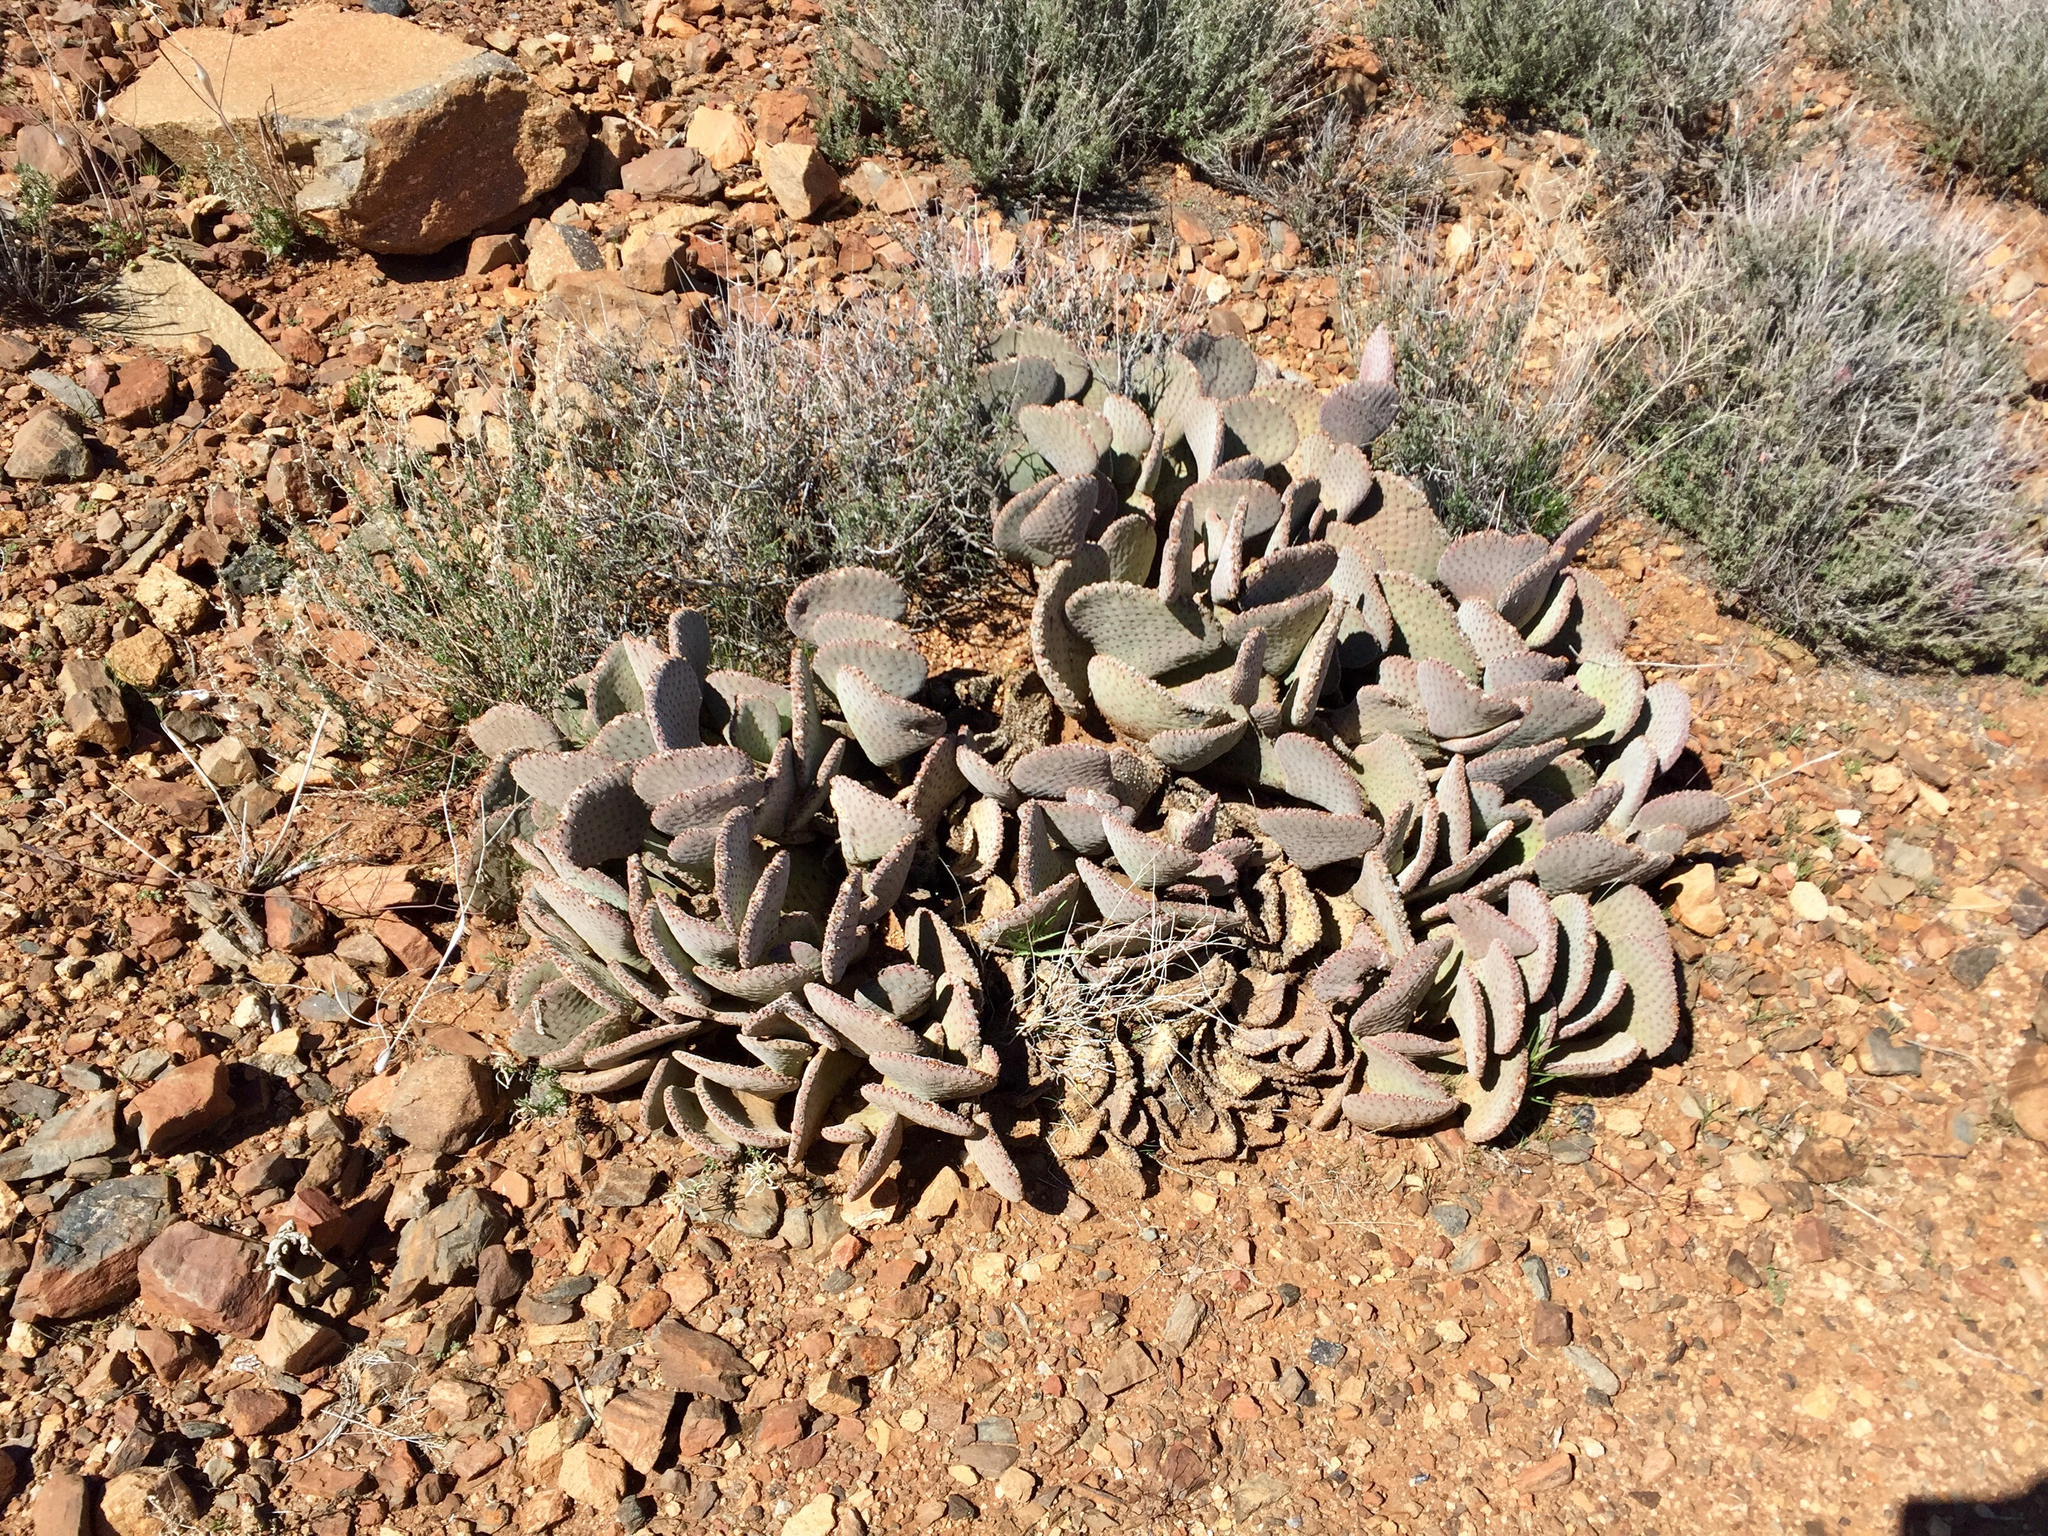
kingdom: Plantae
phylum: Tracheophyta
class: Magnoliopsida
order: Caryophyllales
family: Cactaceae
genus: Opuntia
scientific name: Opuntia basilaris
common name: Beavertail prickly-pear
